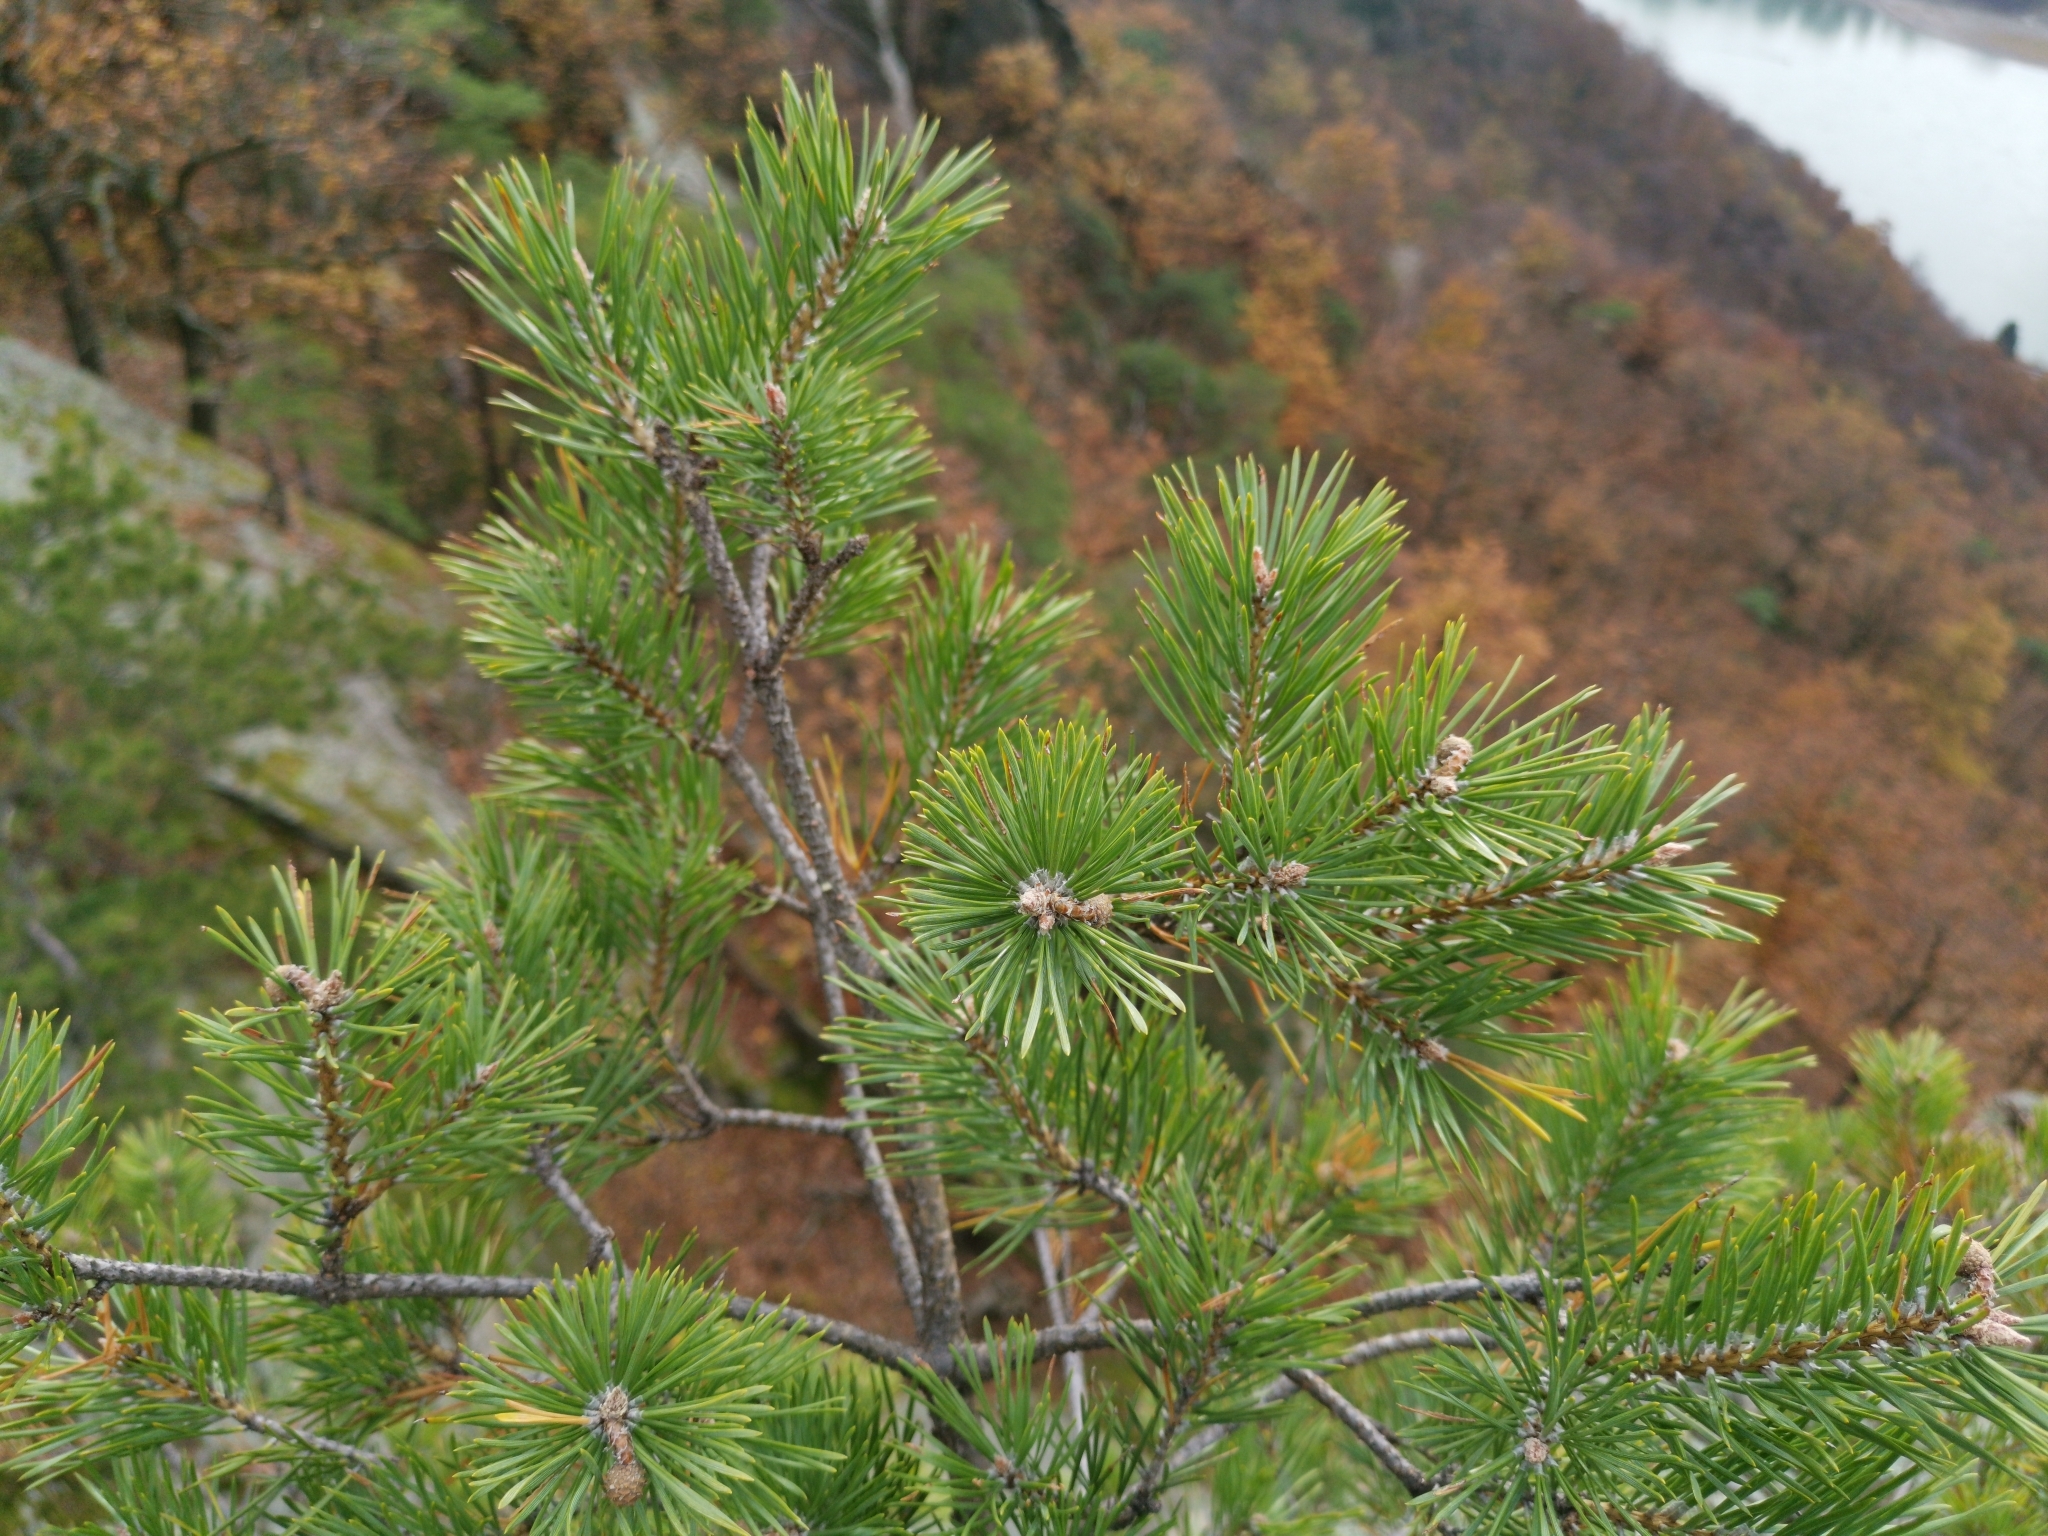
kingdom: Plantae
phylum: Tracheophyta
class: Pinopsida
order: Pinales
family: Pinaceae
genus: Pinus
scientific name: Pinus sylvestris
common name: Scots pine
